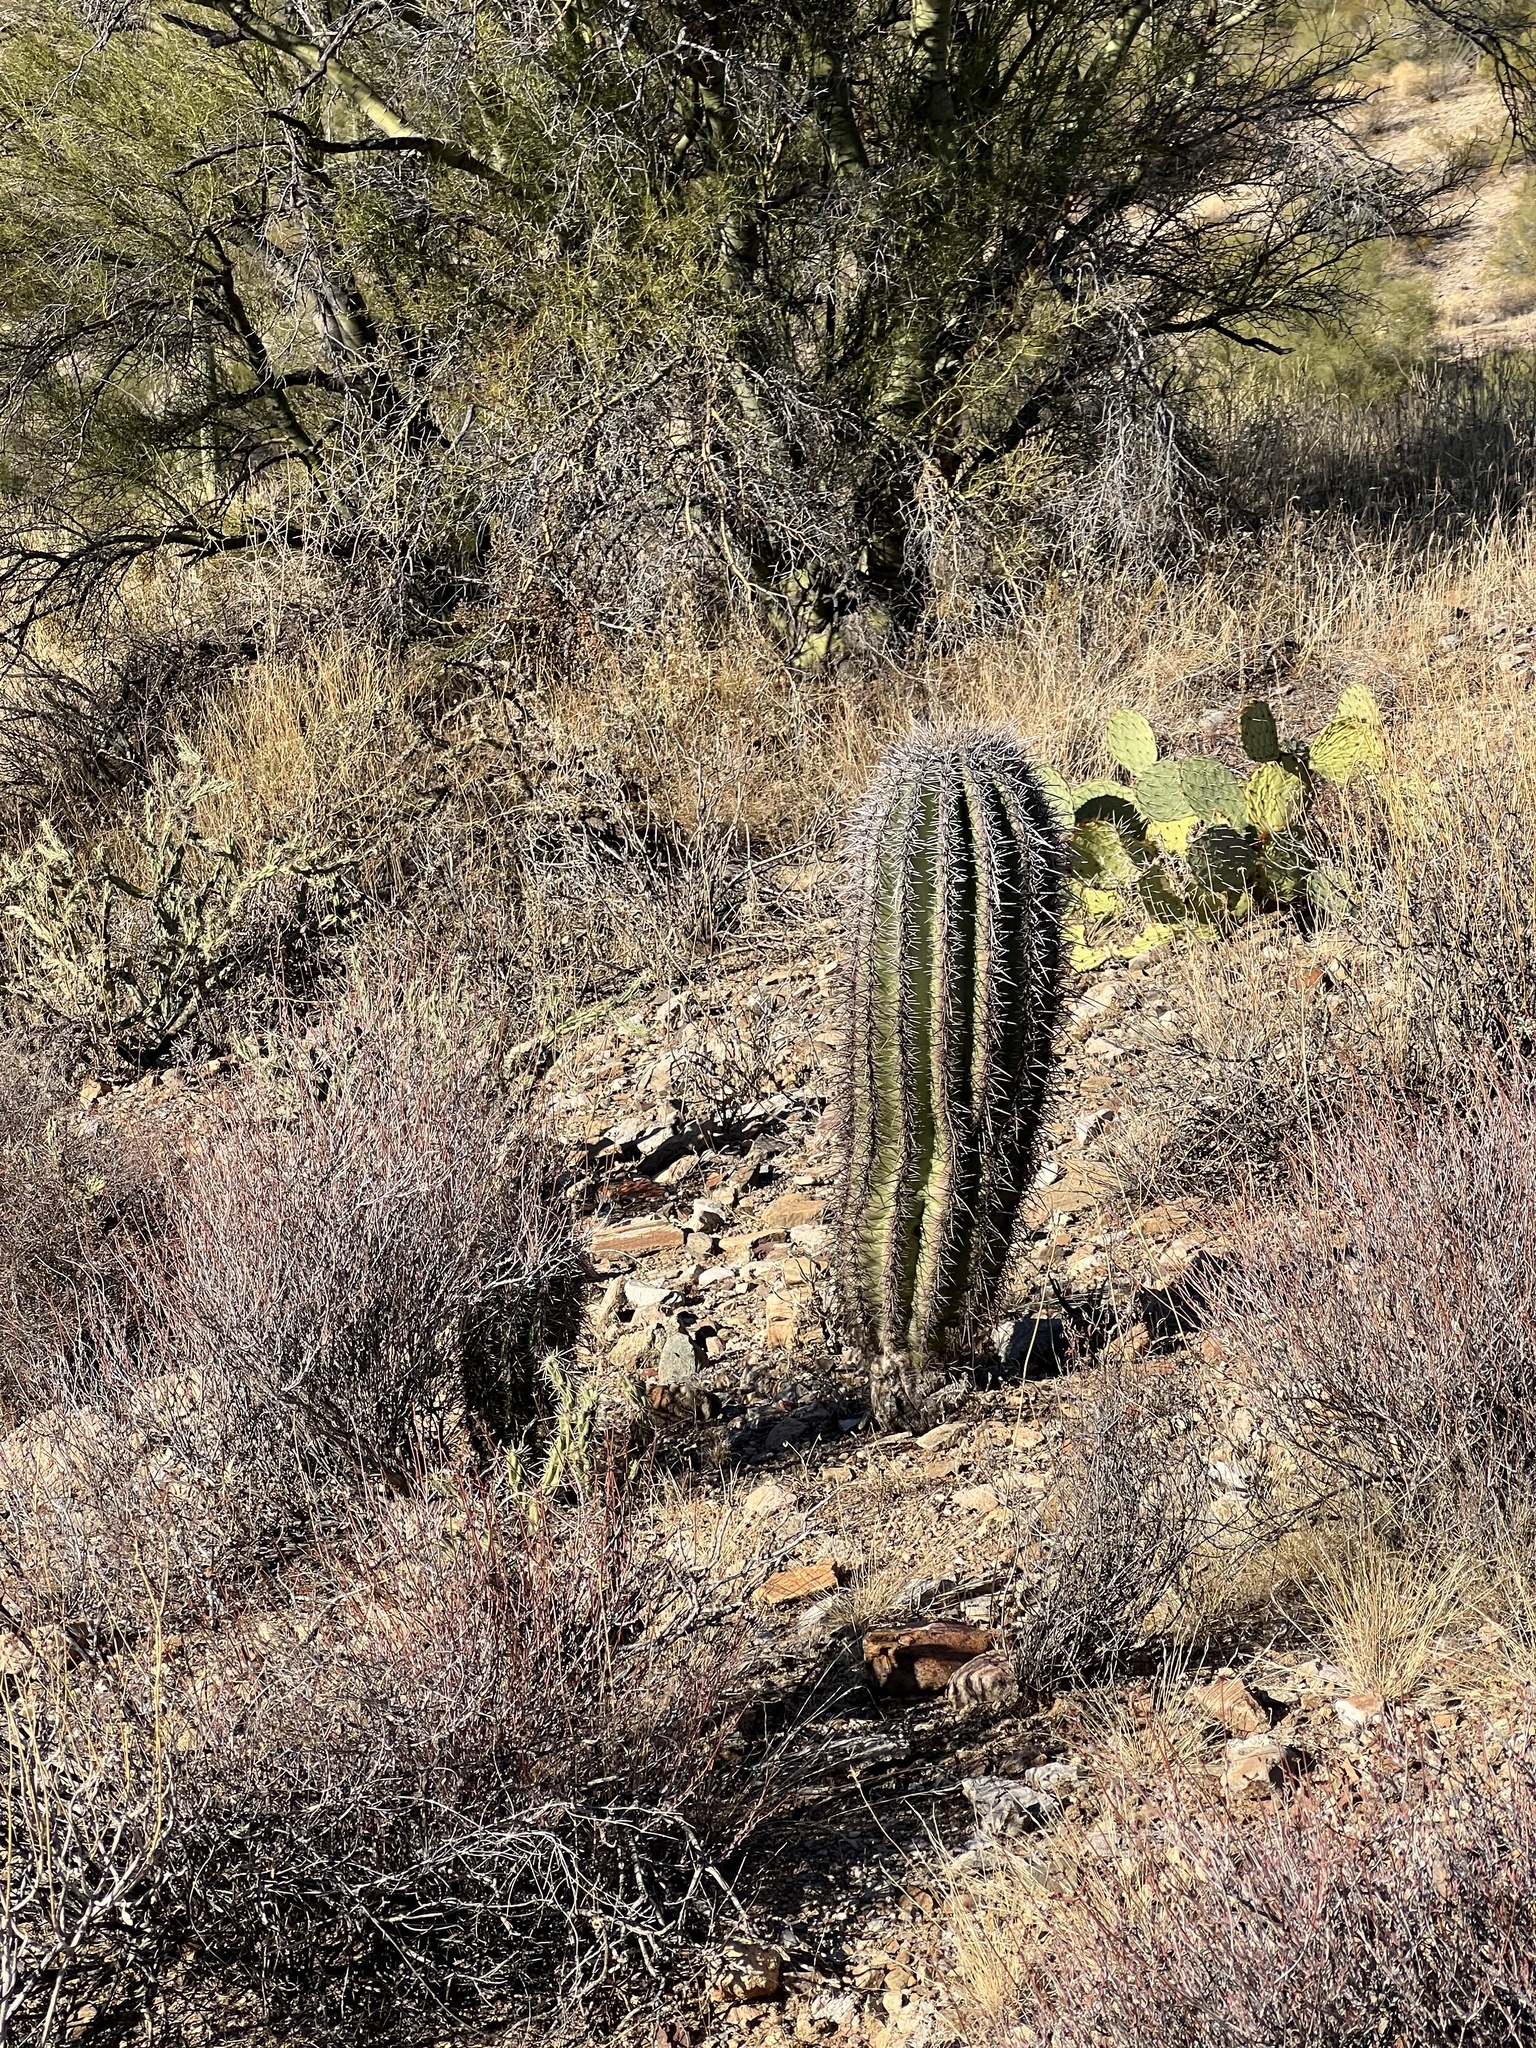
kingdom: Plantae
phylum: Tracheophyta
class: Magnoliopsida
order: Caryophyllales
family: Cactaceae
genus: Carnegiea
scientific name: Carnegiea gigantea
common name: Saguaro
